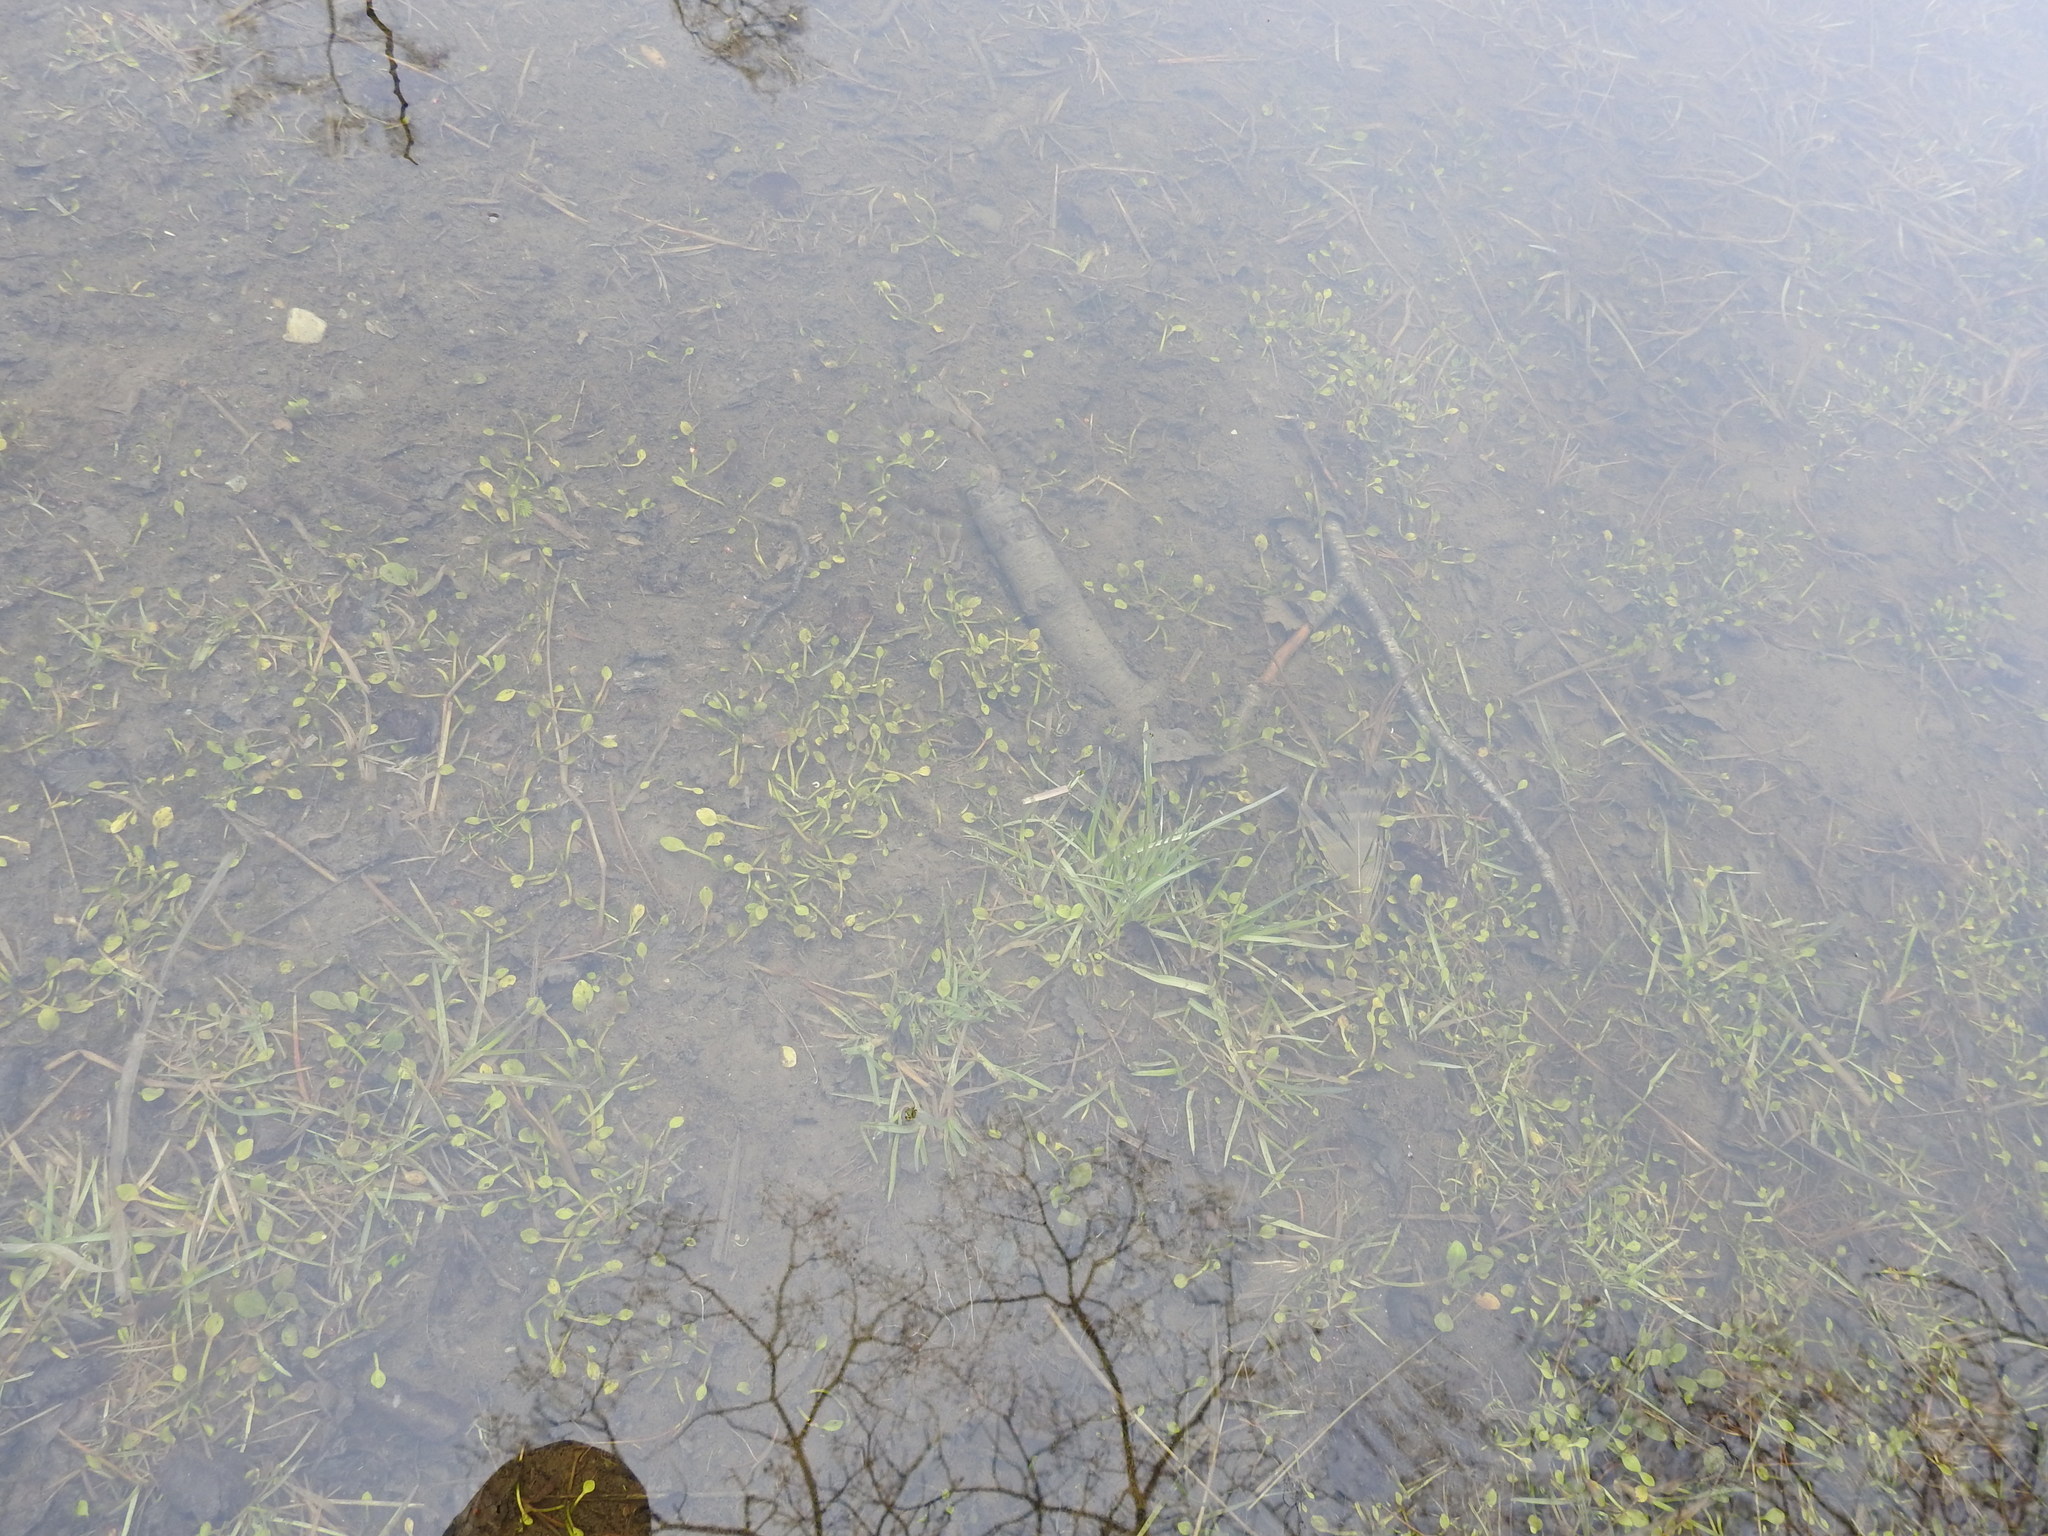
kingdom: Plantae
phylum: Tracheophyta
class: Magnoliopsida
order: Ranunculales
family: Ranunculaceae
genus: Ranunculus
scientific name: Ranunculus hydrophilus
